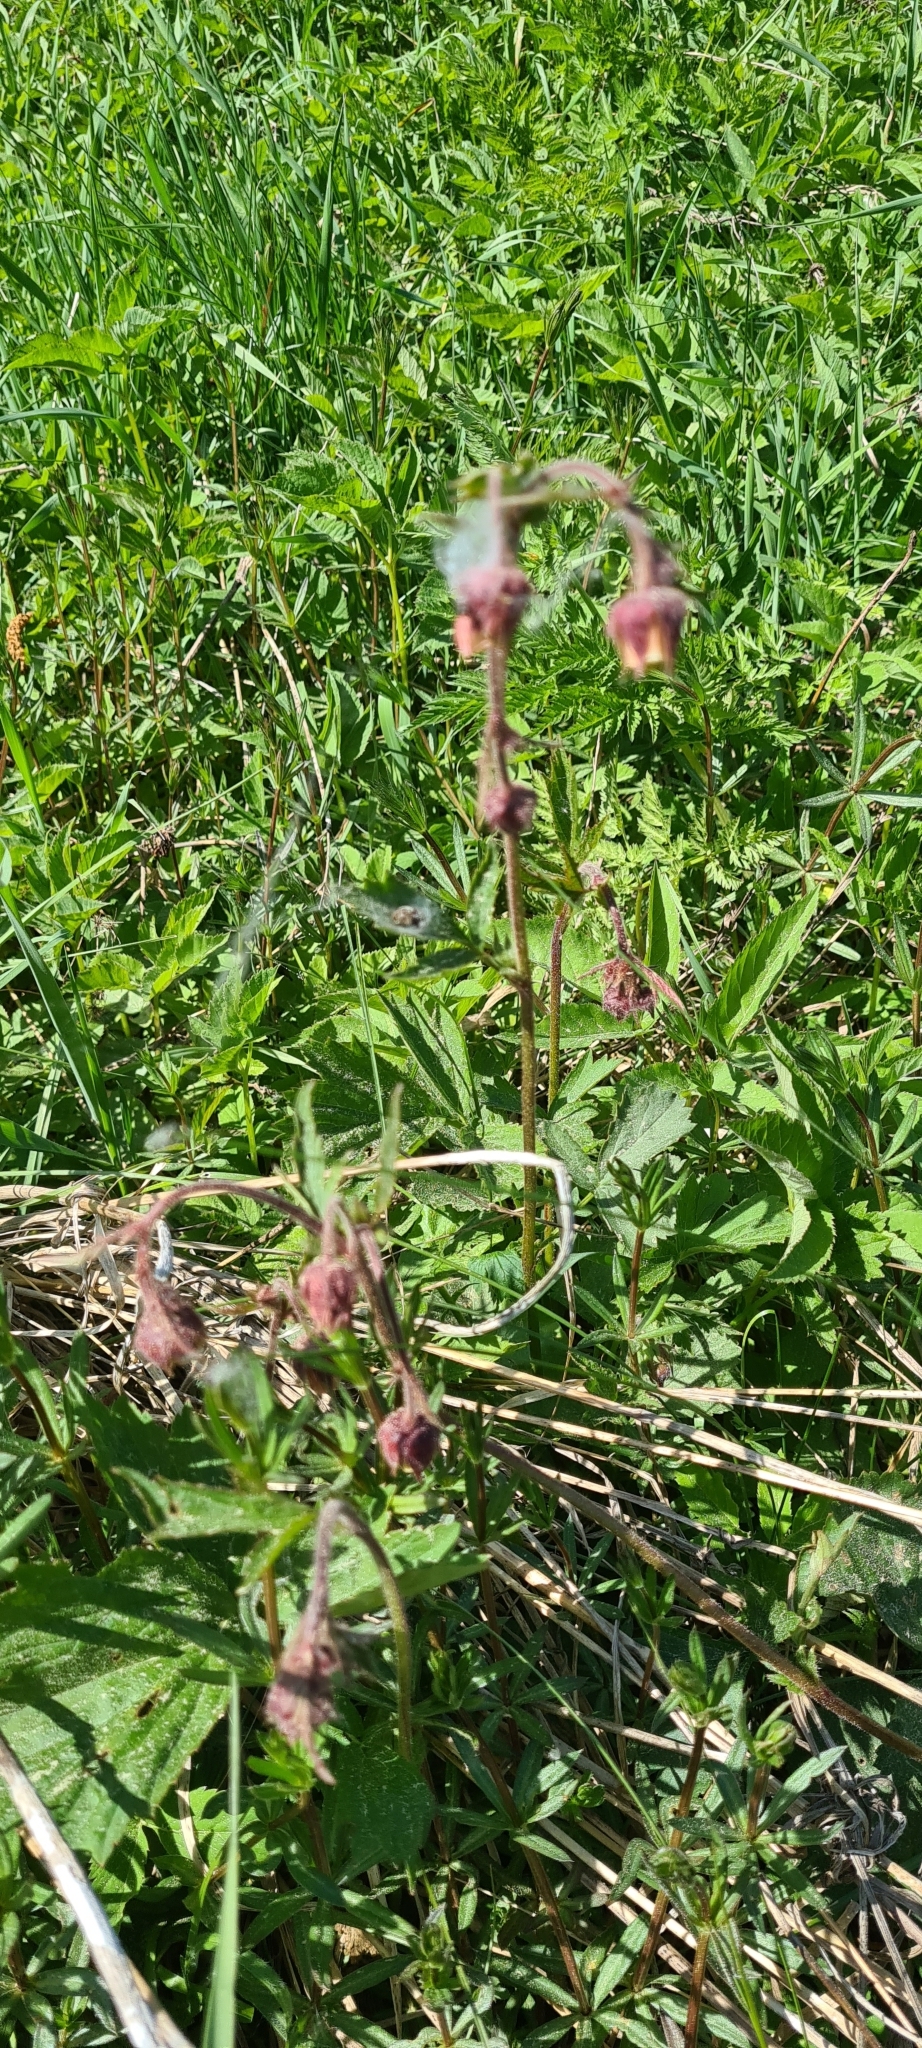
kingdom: Plantae
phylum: Tracheophyta
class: Magnoliopsida
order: Rosales
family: Rosaceae
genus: Geum
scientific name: Geum rivale
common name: Water avens
